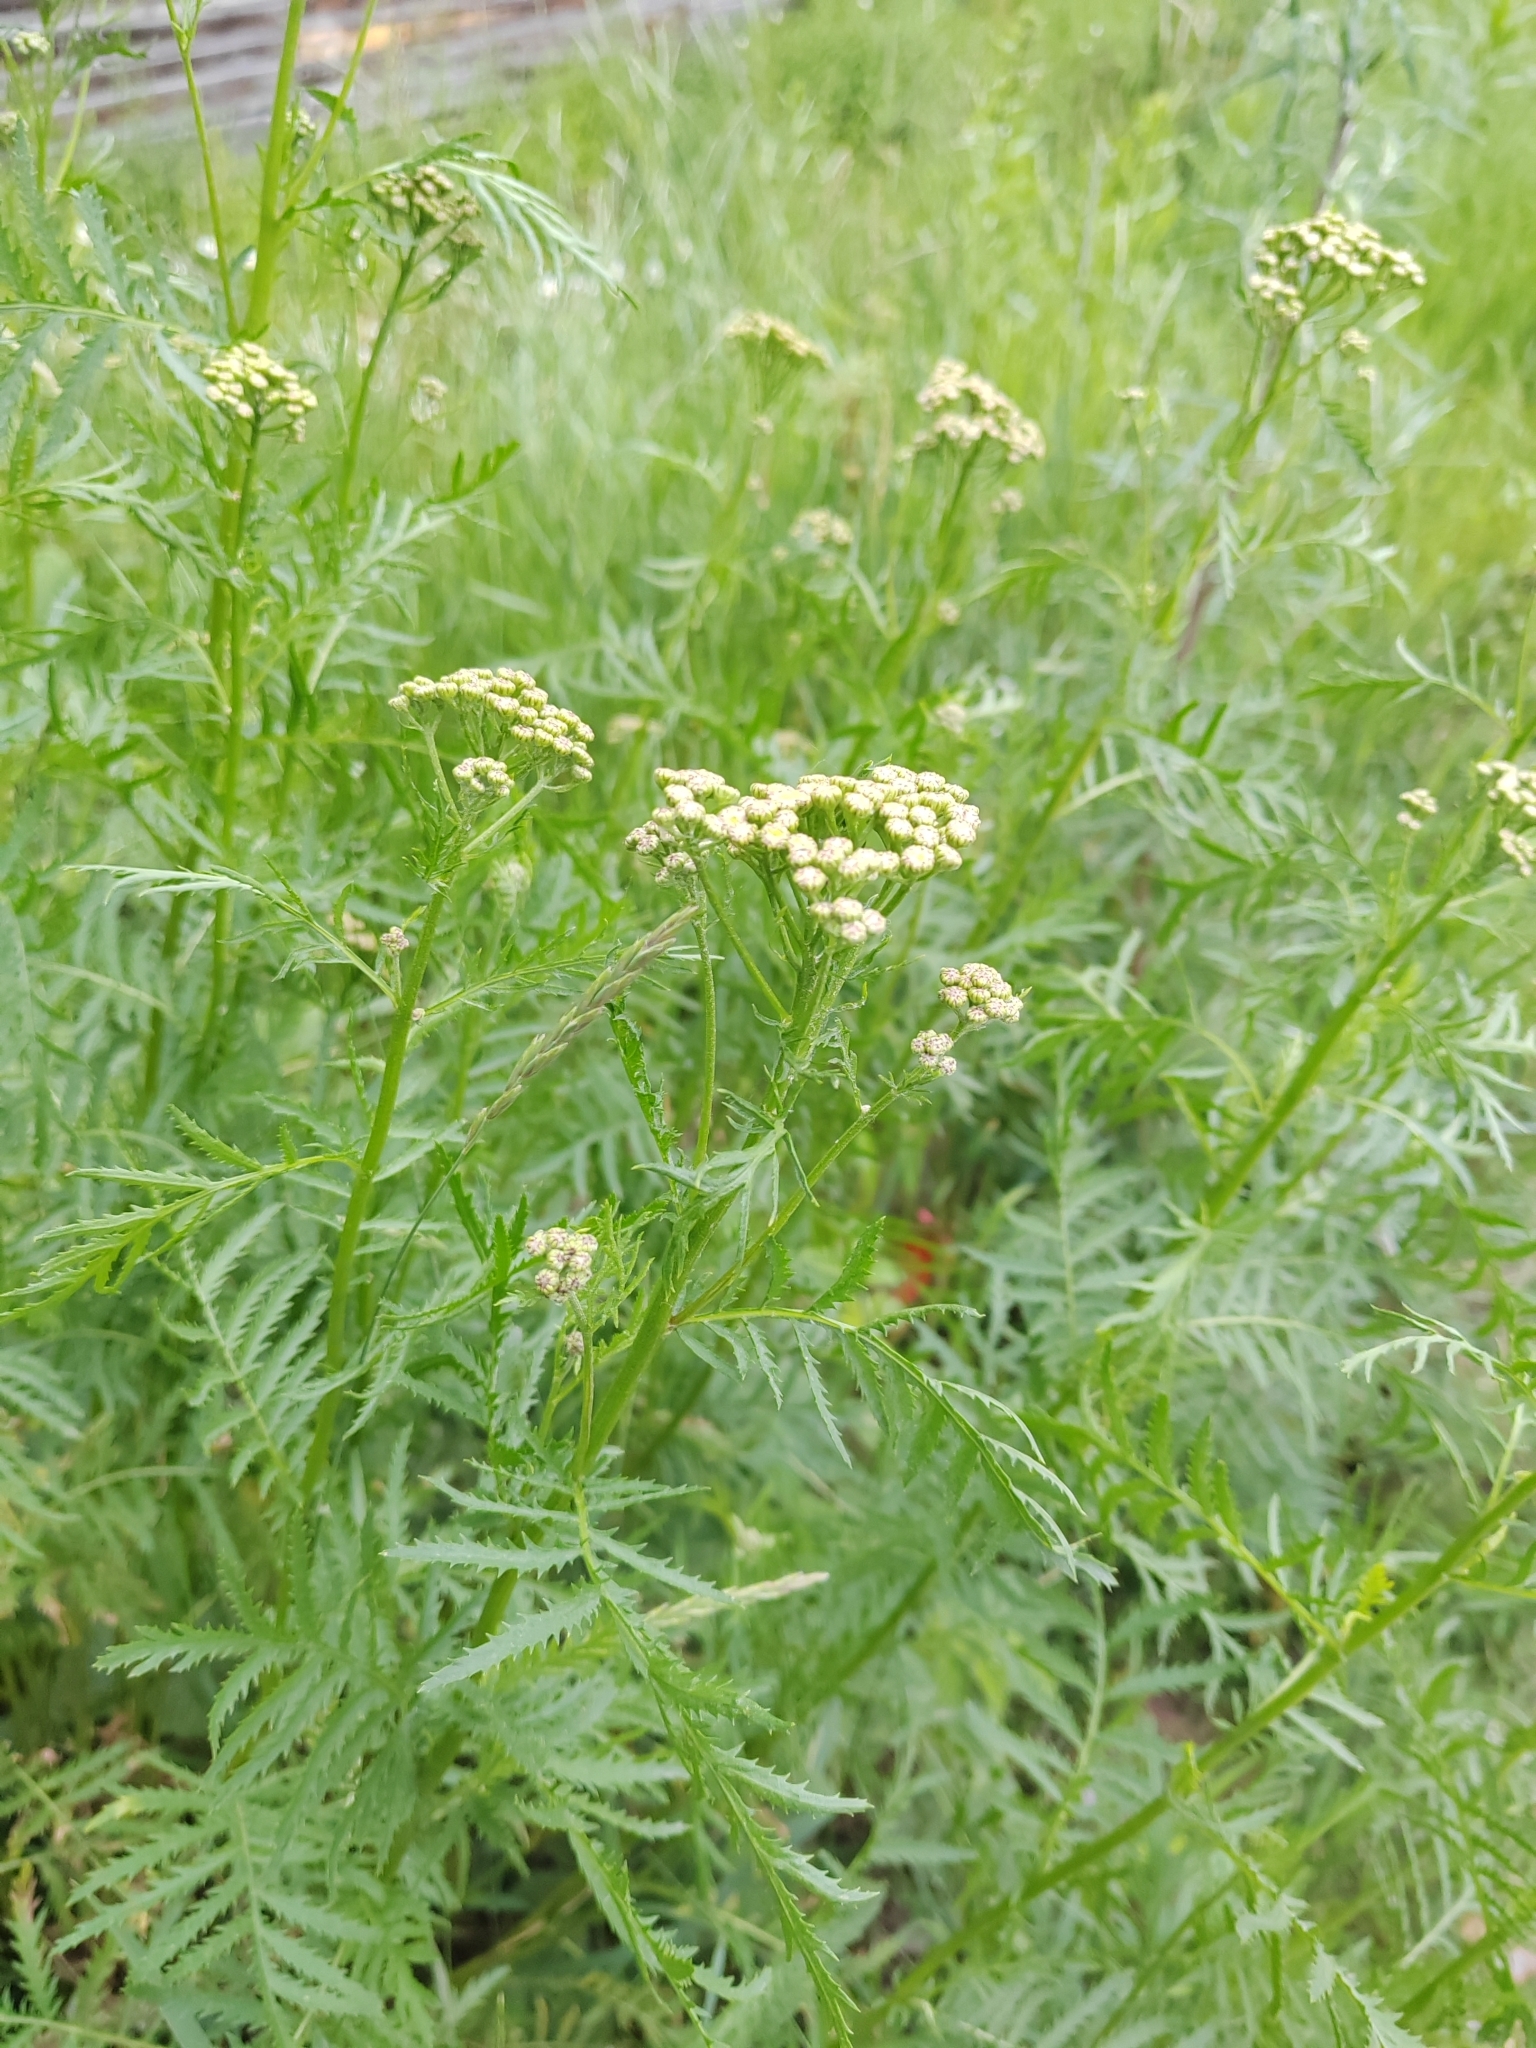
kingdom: Plantae
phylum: Tracheophyta
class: Magnoliopsida
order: Asterales
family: Asteraceae
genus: Tanacetum
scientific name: Tanacetum vulgare
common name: Common tansy
